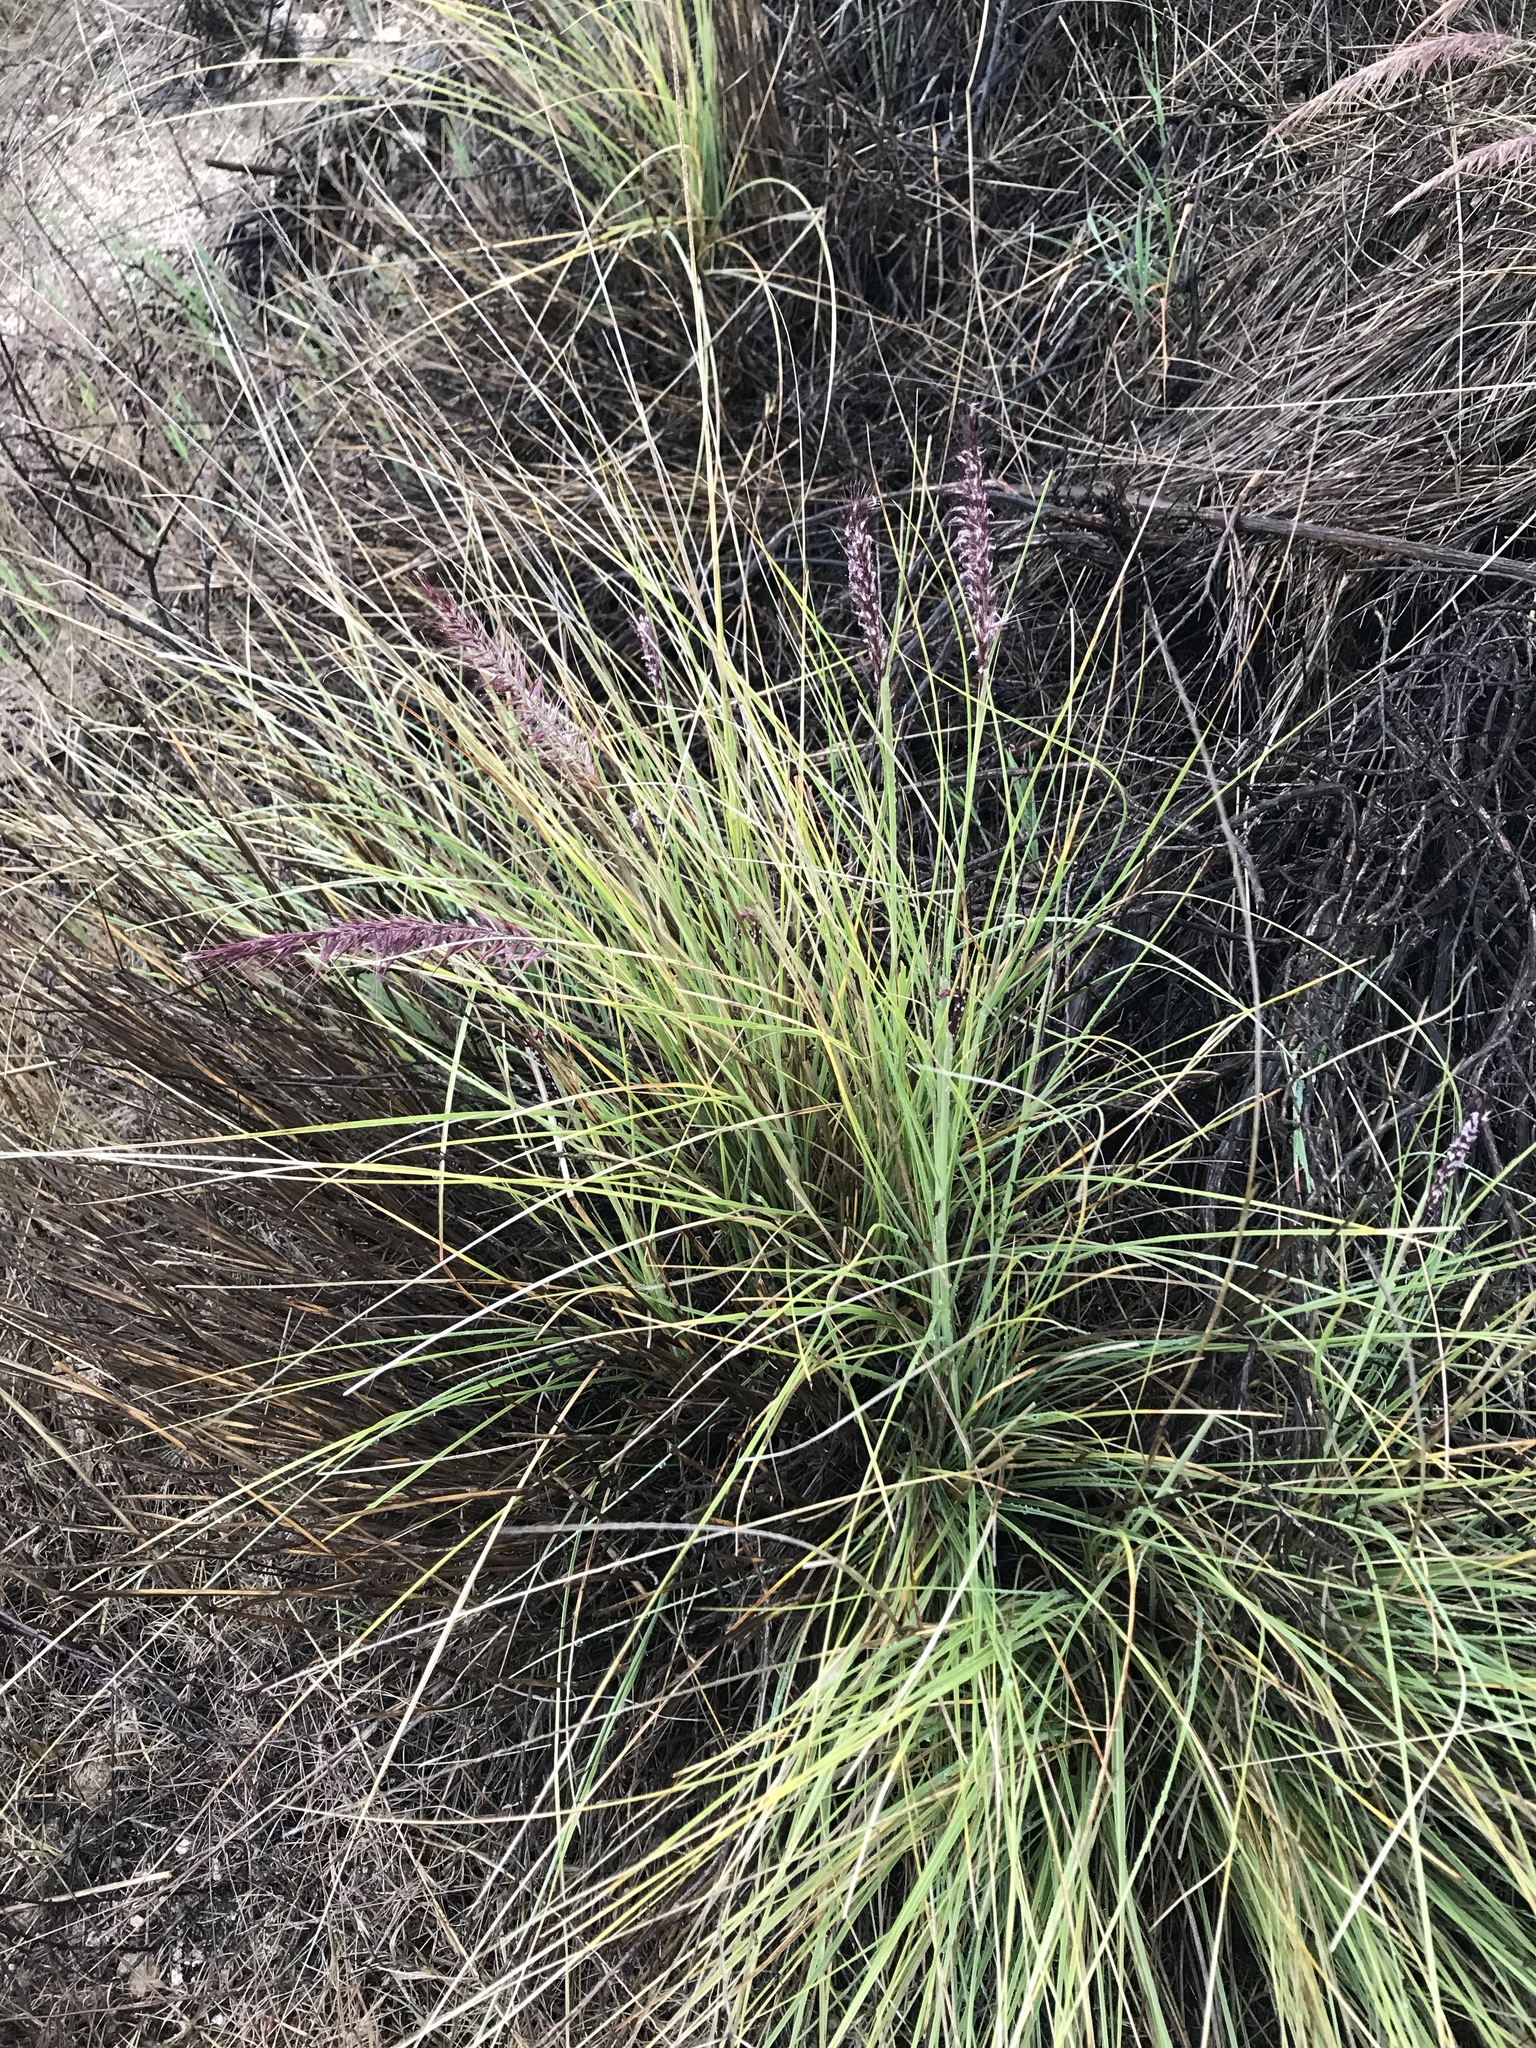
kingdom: Plantae
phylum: Tracheophyta
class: Liliopsida
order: Poales
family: Poaceae
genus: Cenchrus
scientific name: Cenchrus setaceus
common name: Crimson fountaingrass
